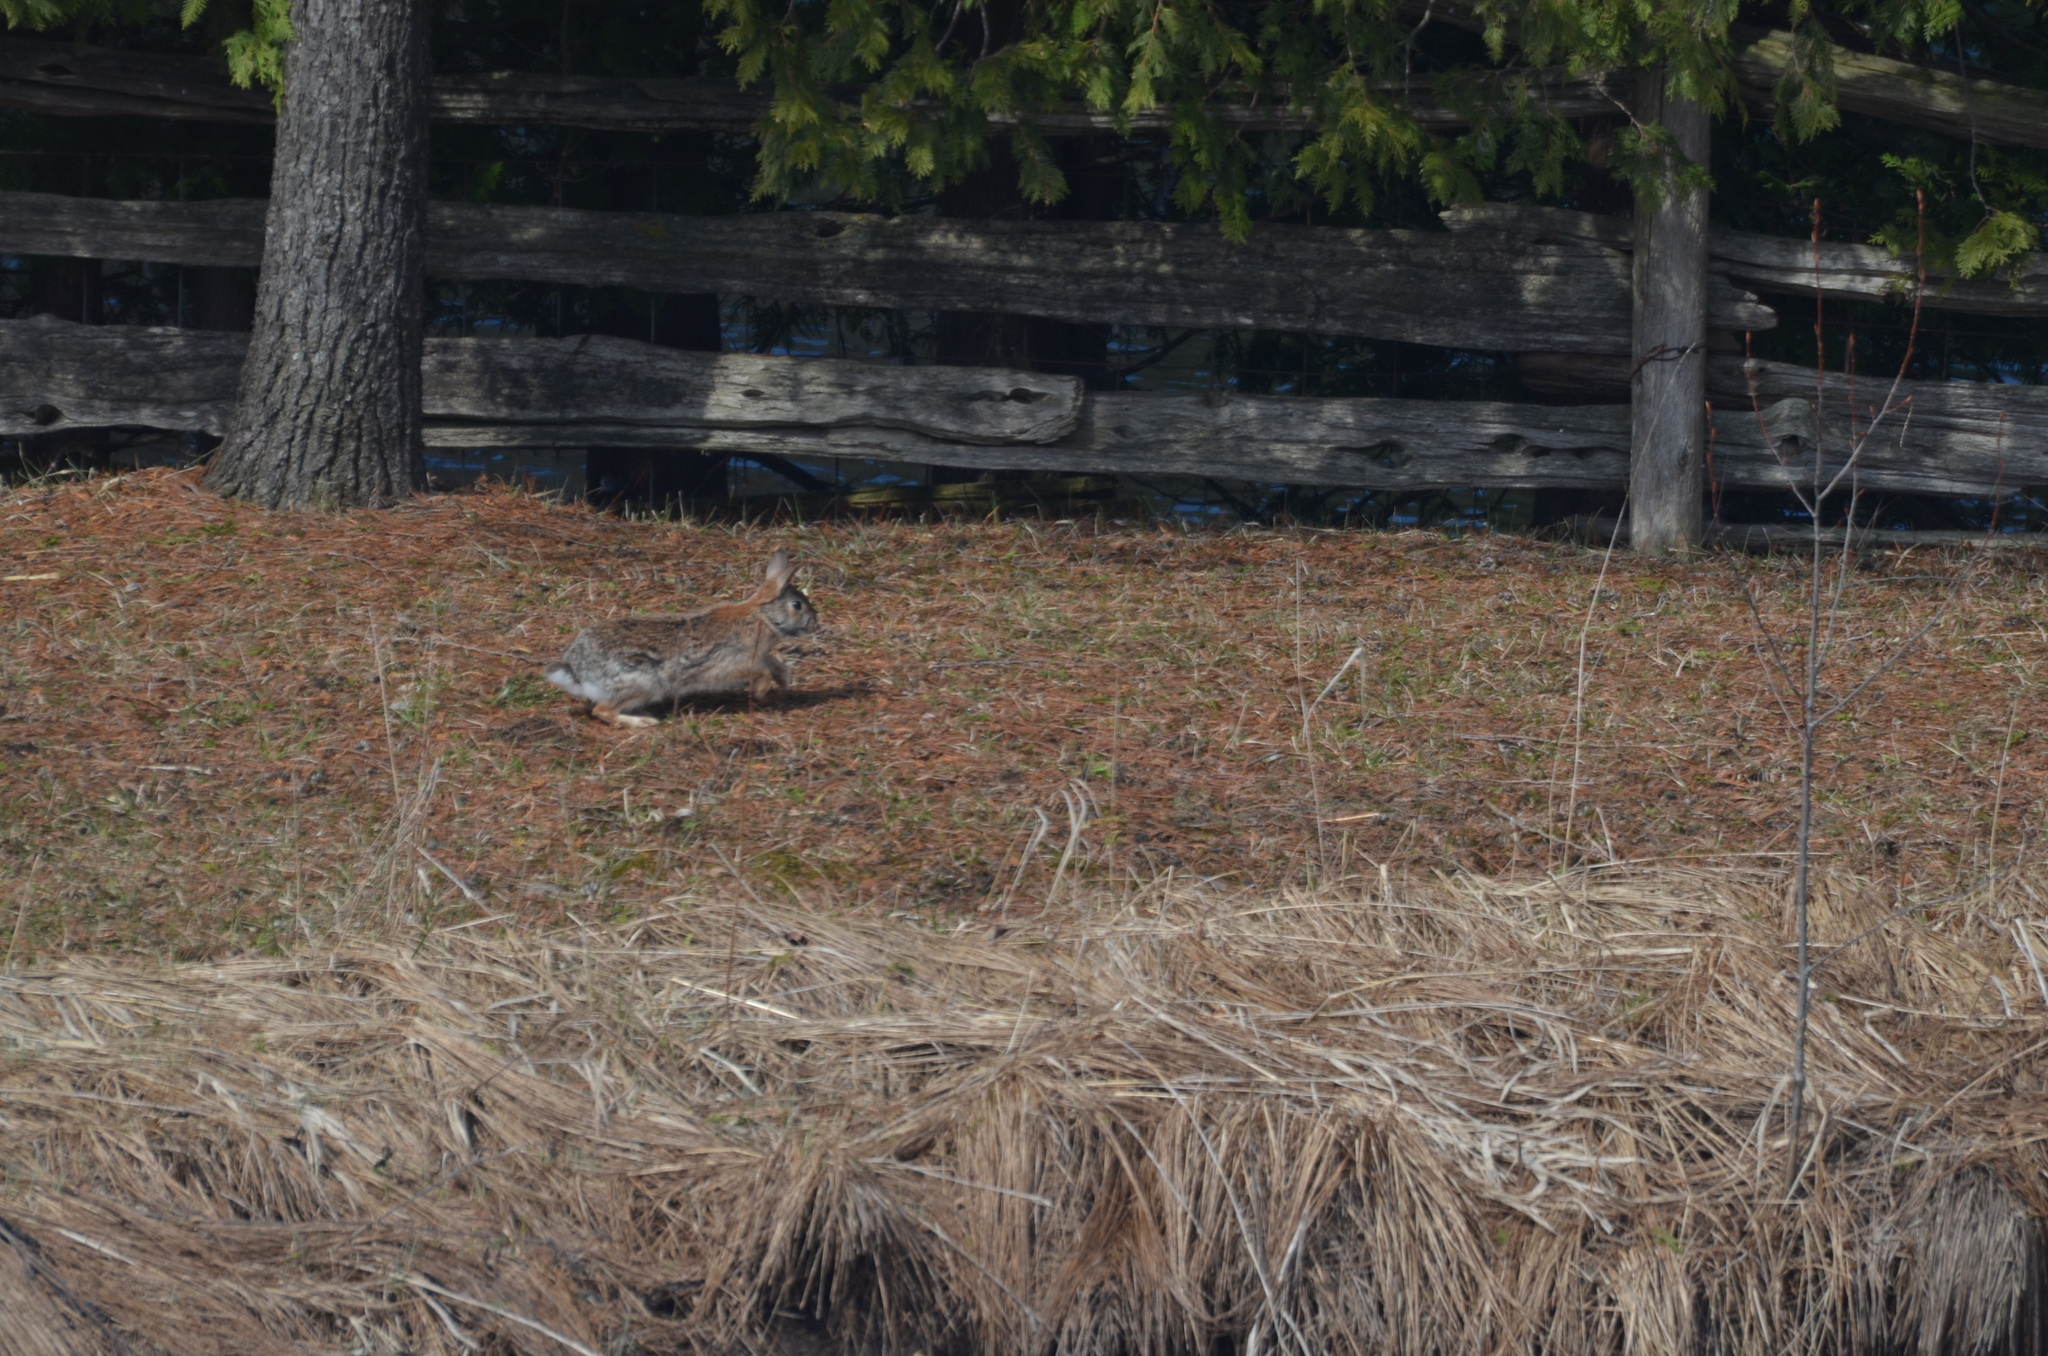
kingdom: Animalia
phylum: Chordata
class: Mammalia
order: Lagomorpha
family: Leporidae
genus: Sylvilagus
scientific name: Sylvilagus floridanus
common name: Eastern cottontail
